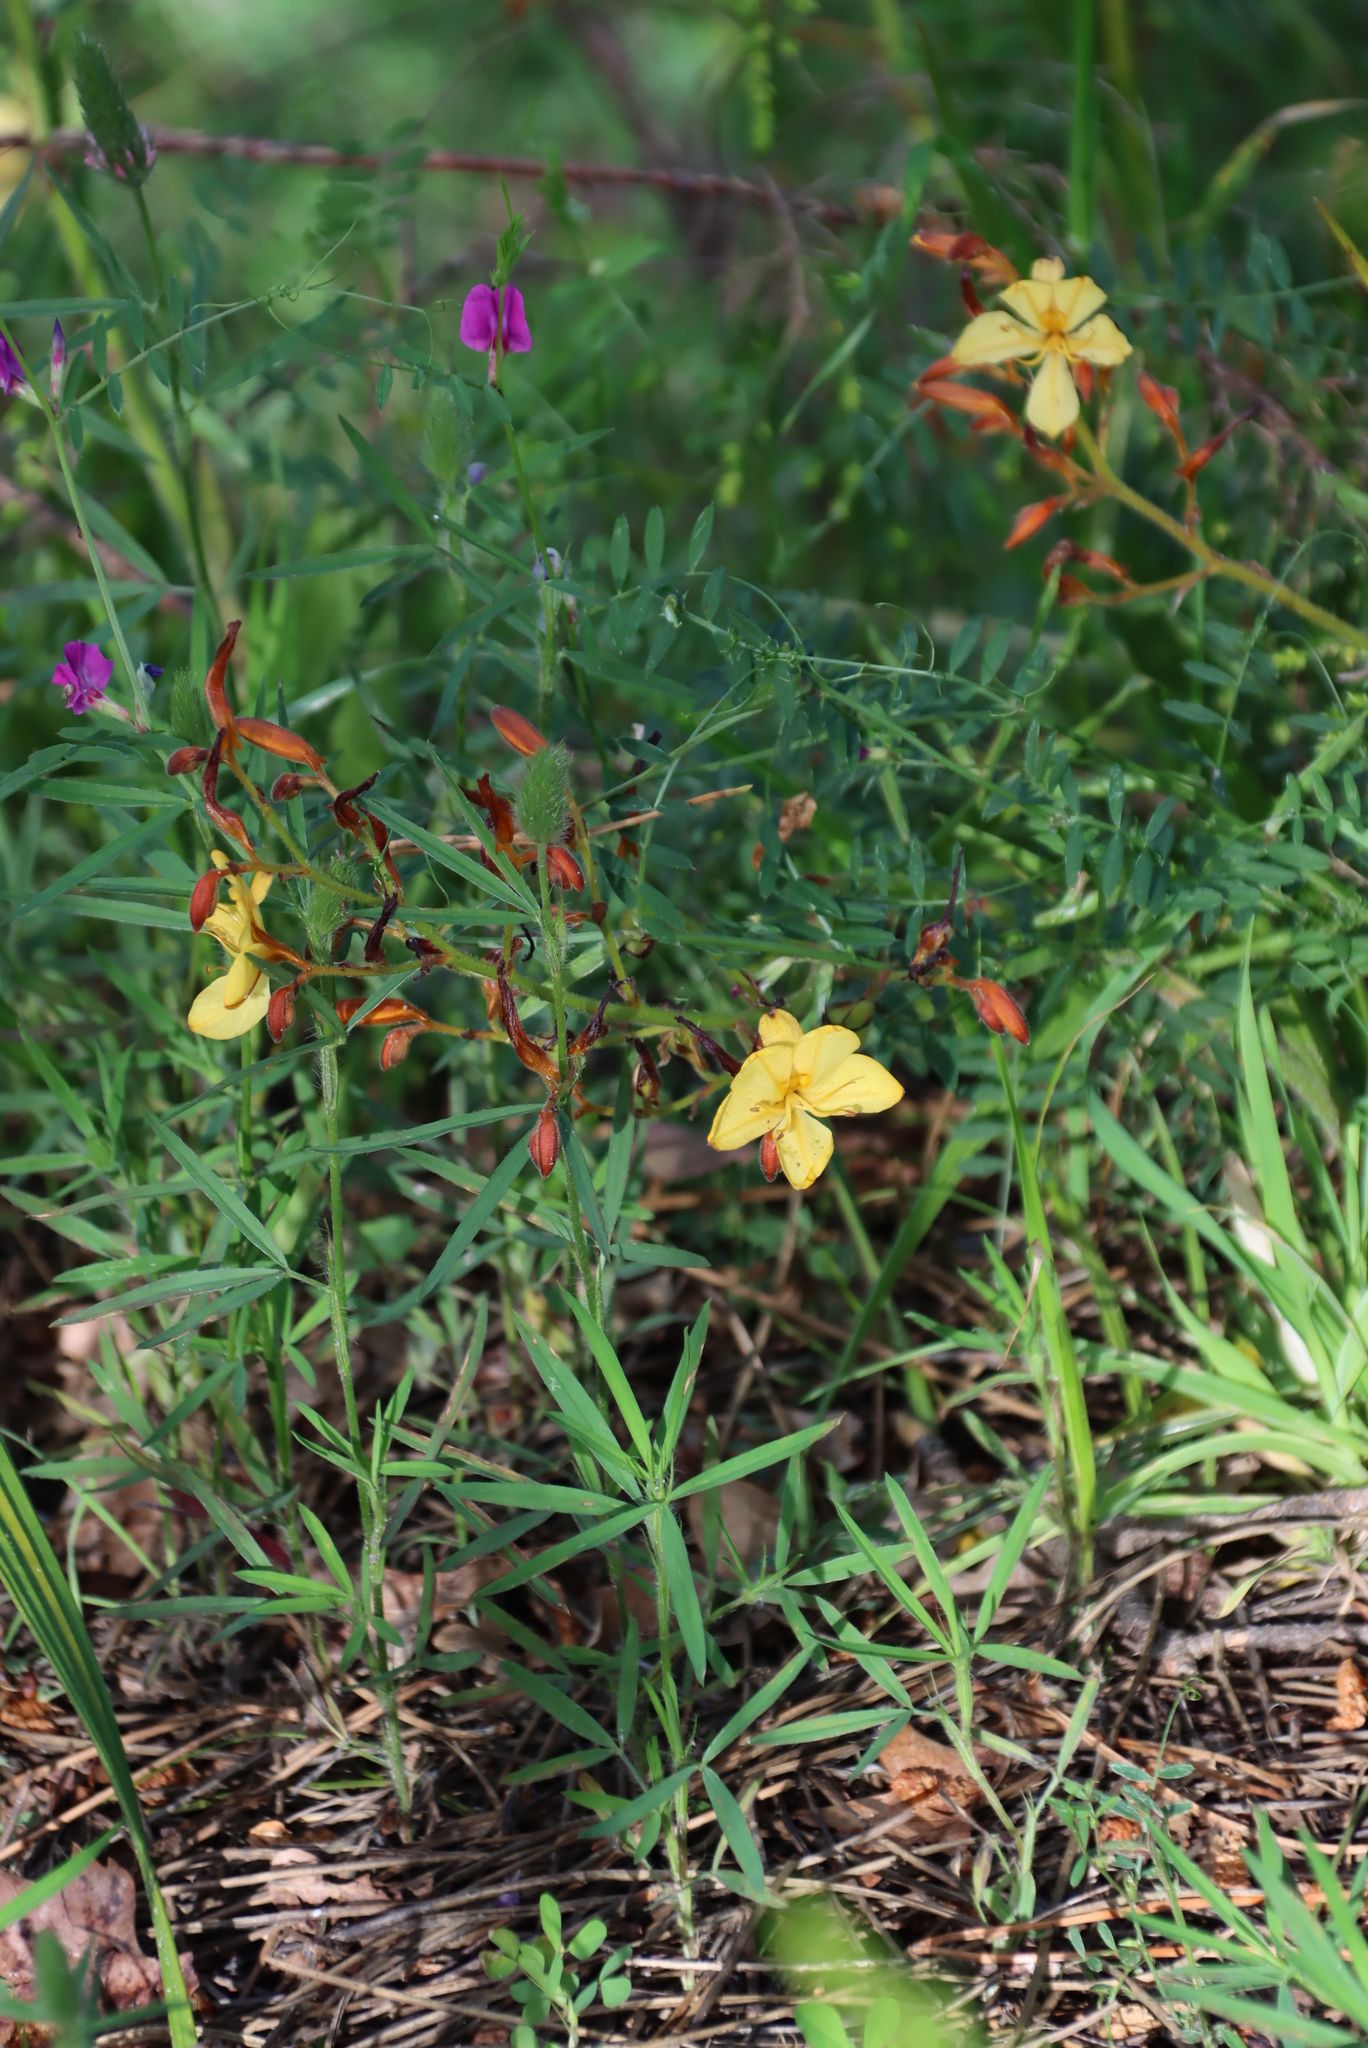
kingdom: Plantae
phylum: Tracheophyta
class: Liliopsida
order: Commelinales
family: Haemodoraceae
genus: Wachendorfia
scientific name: Wachendorfia paniculata
